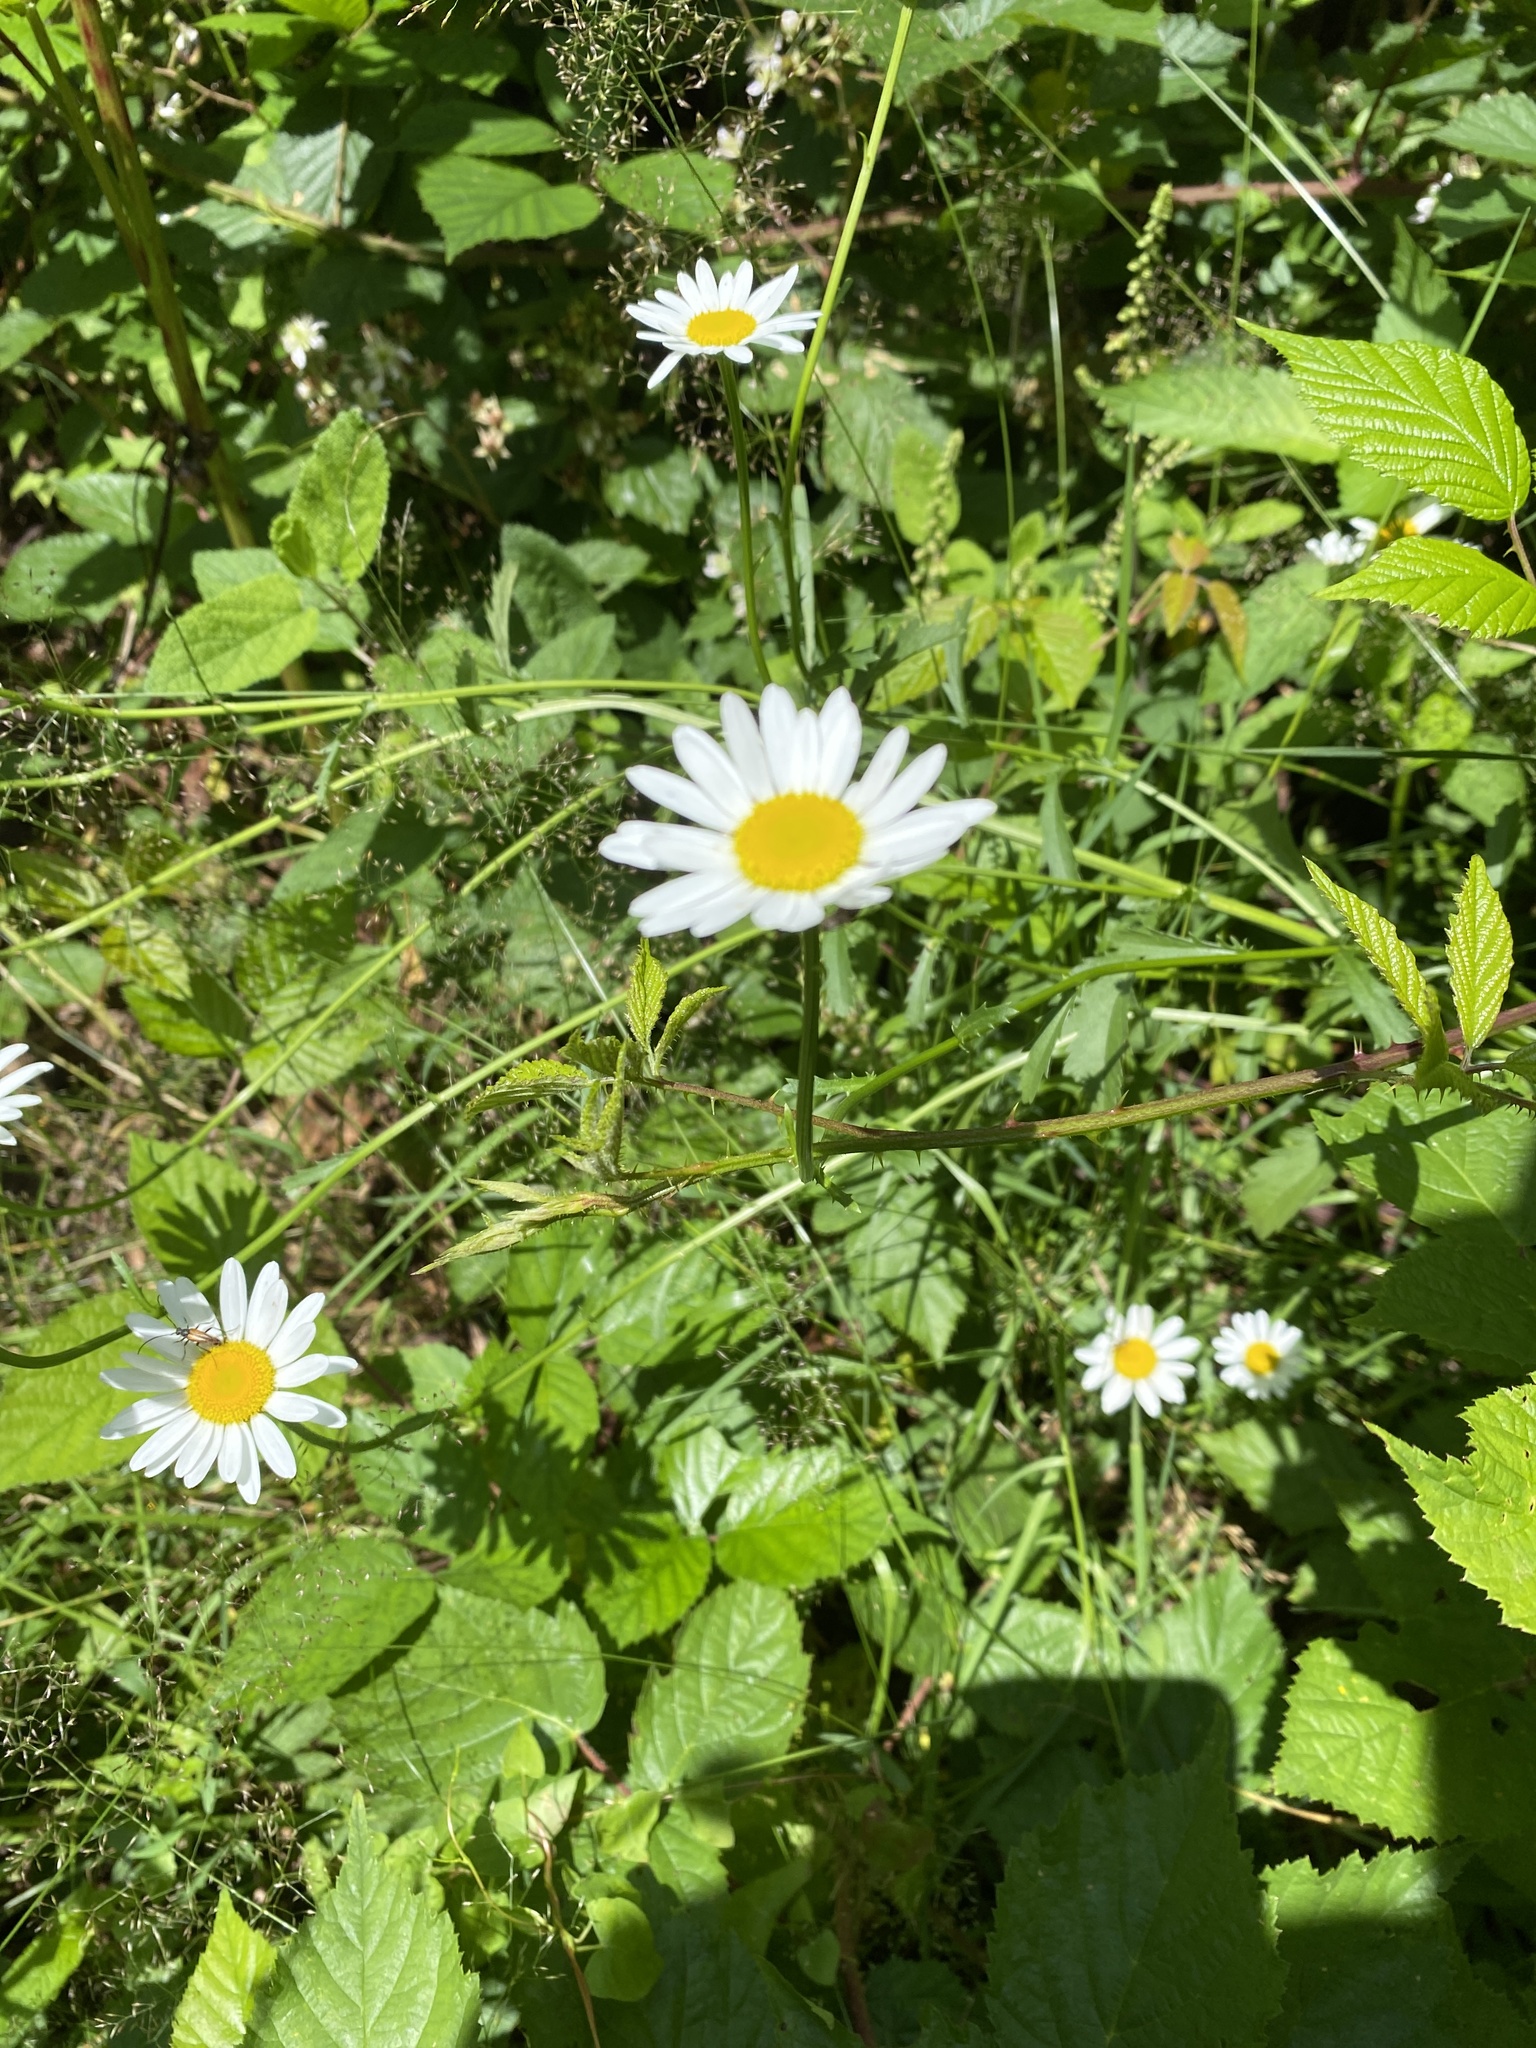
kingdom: Plantae
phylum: Tracheophyta
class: Magnoliopsida
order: Asterales
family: Asteraceae
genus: Leucanthemum
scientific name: Leucanthemum vulgare
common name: Oxeye daisy
